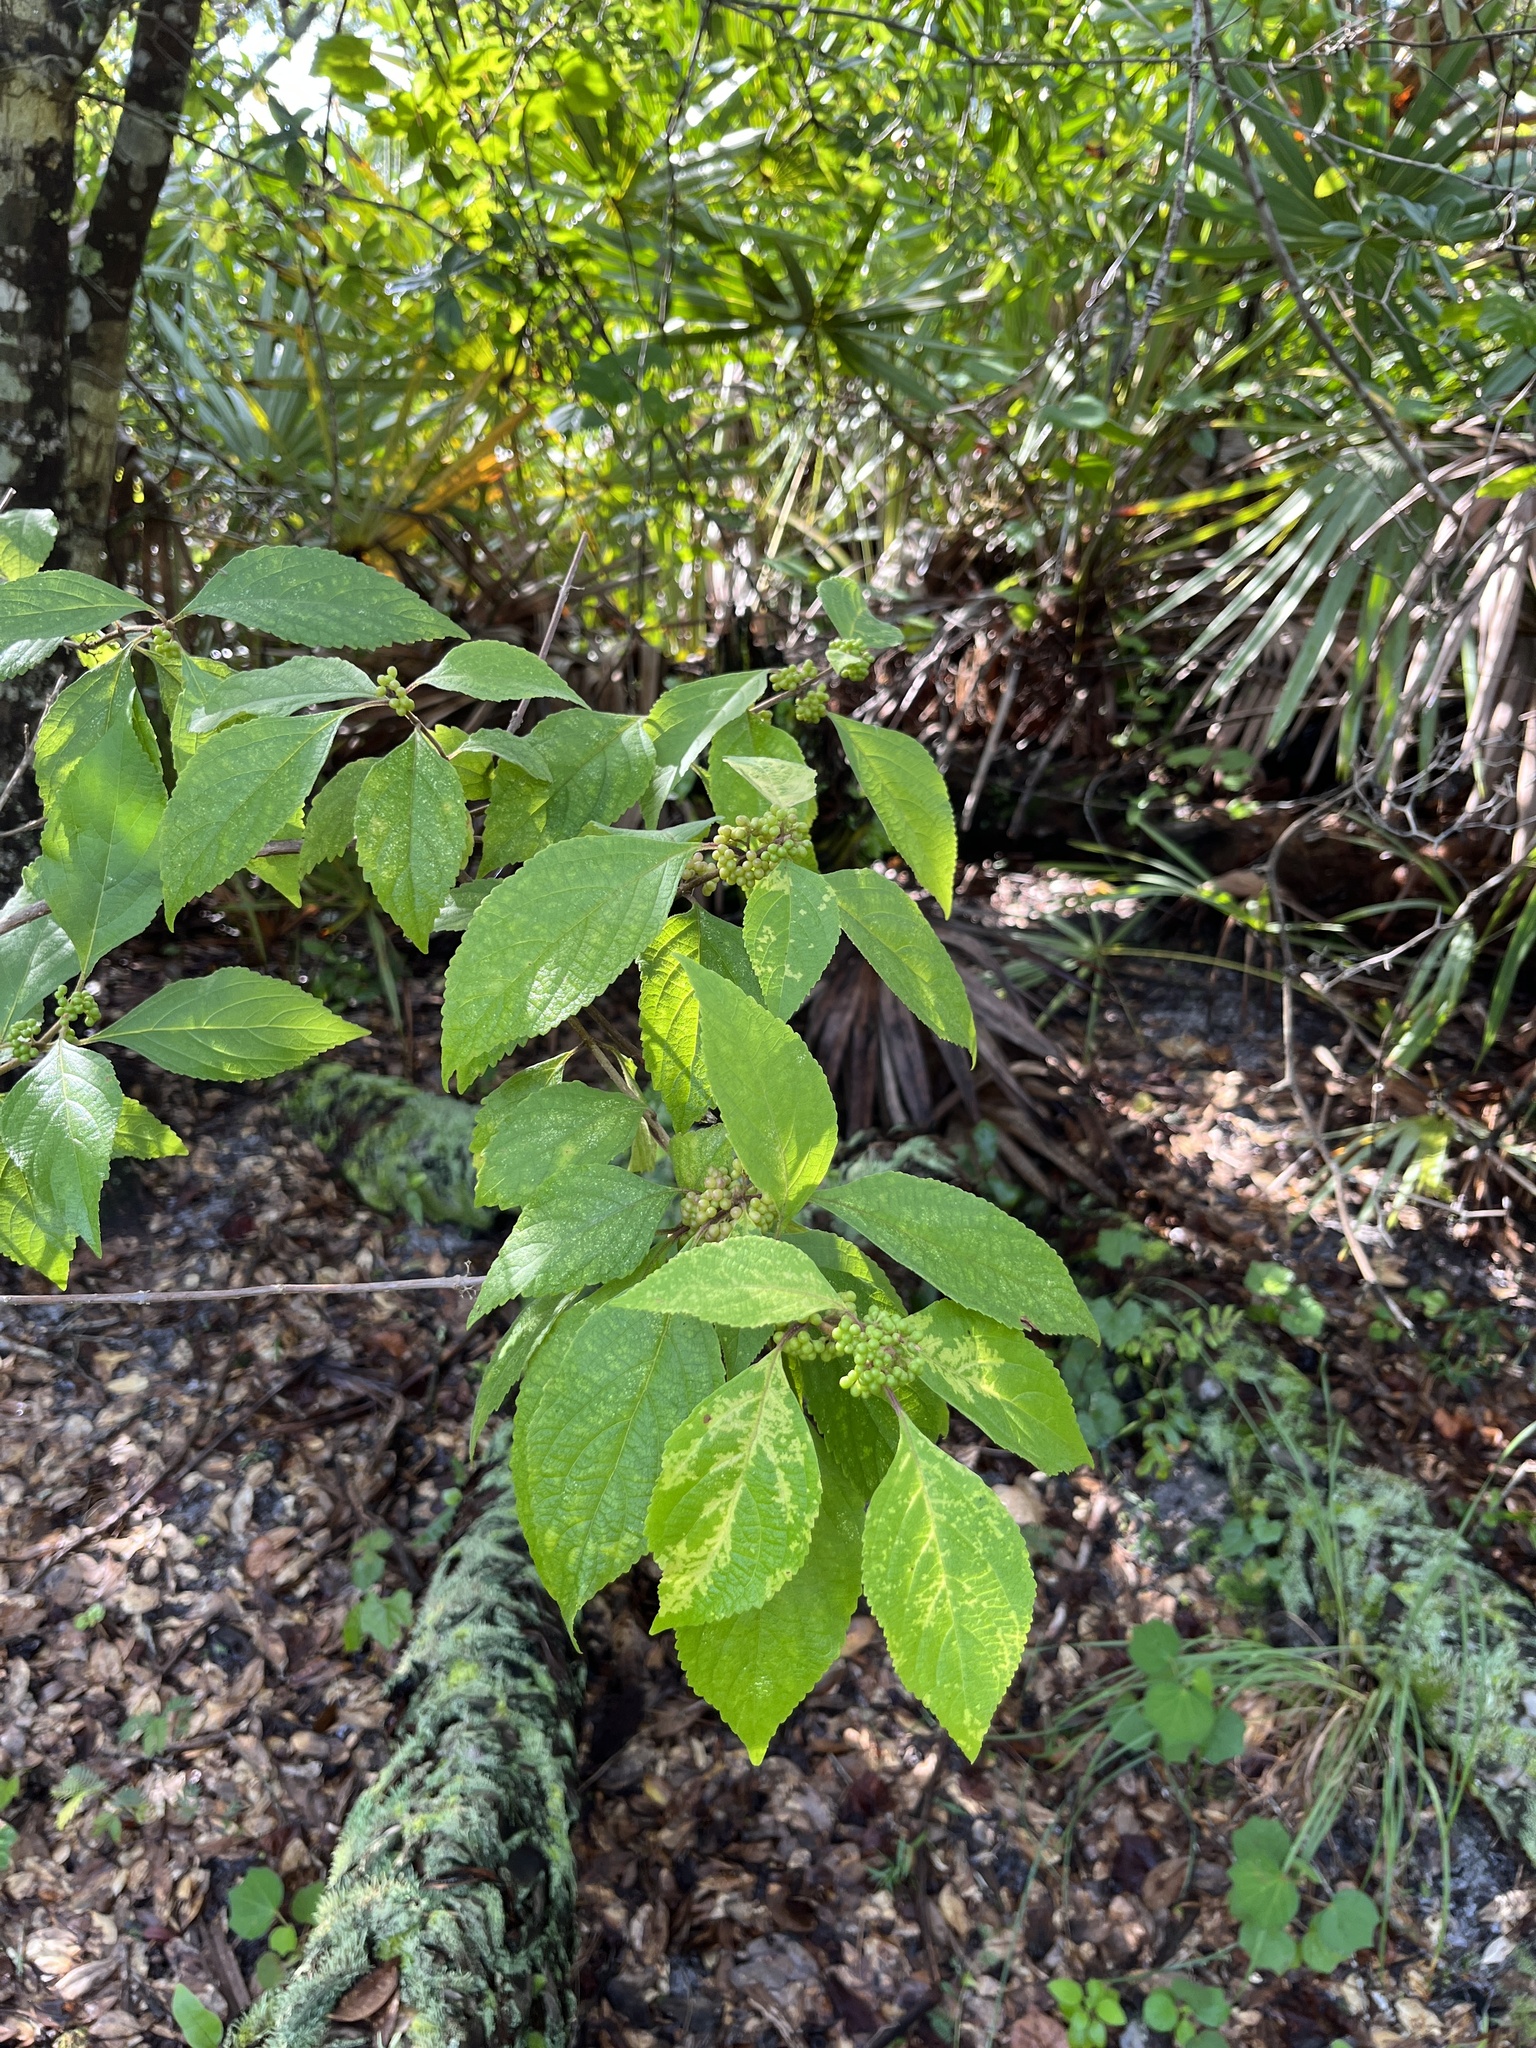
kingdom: Plantae
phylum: Tracheophyta
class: Magnoliopsida
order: Lamiales
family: Lamiaceae
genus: Callicarpa
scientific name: Callicarpa americana
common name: American beautyberry
